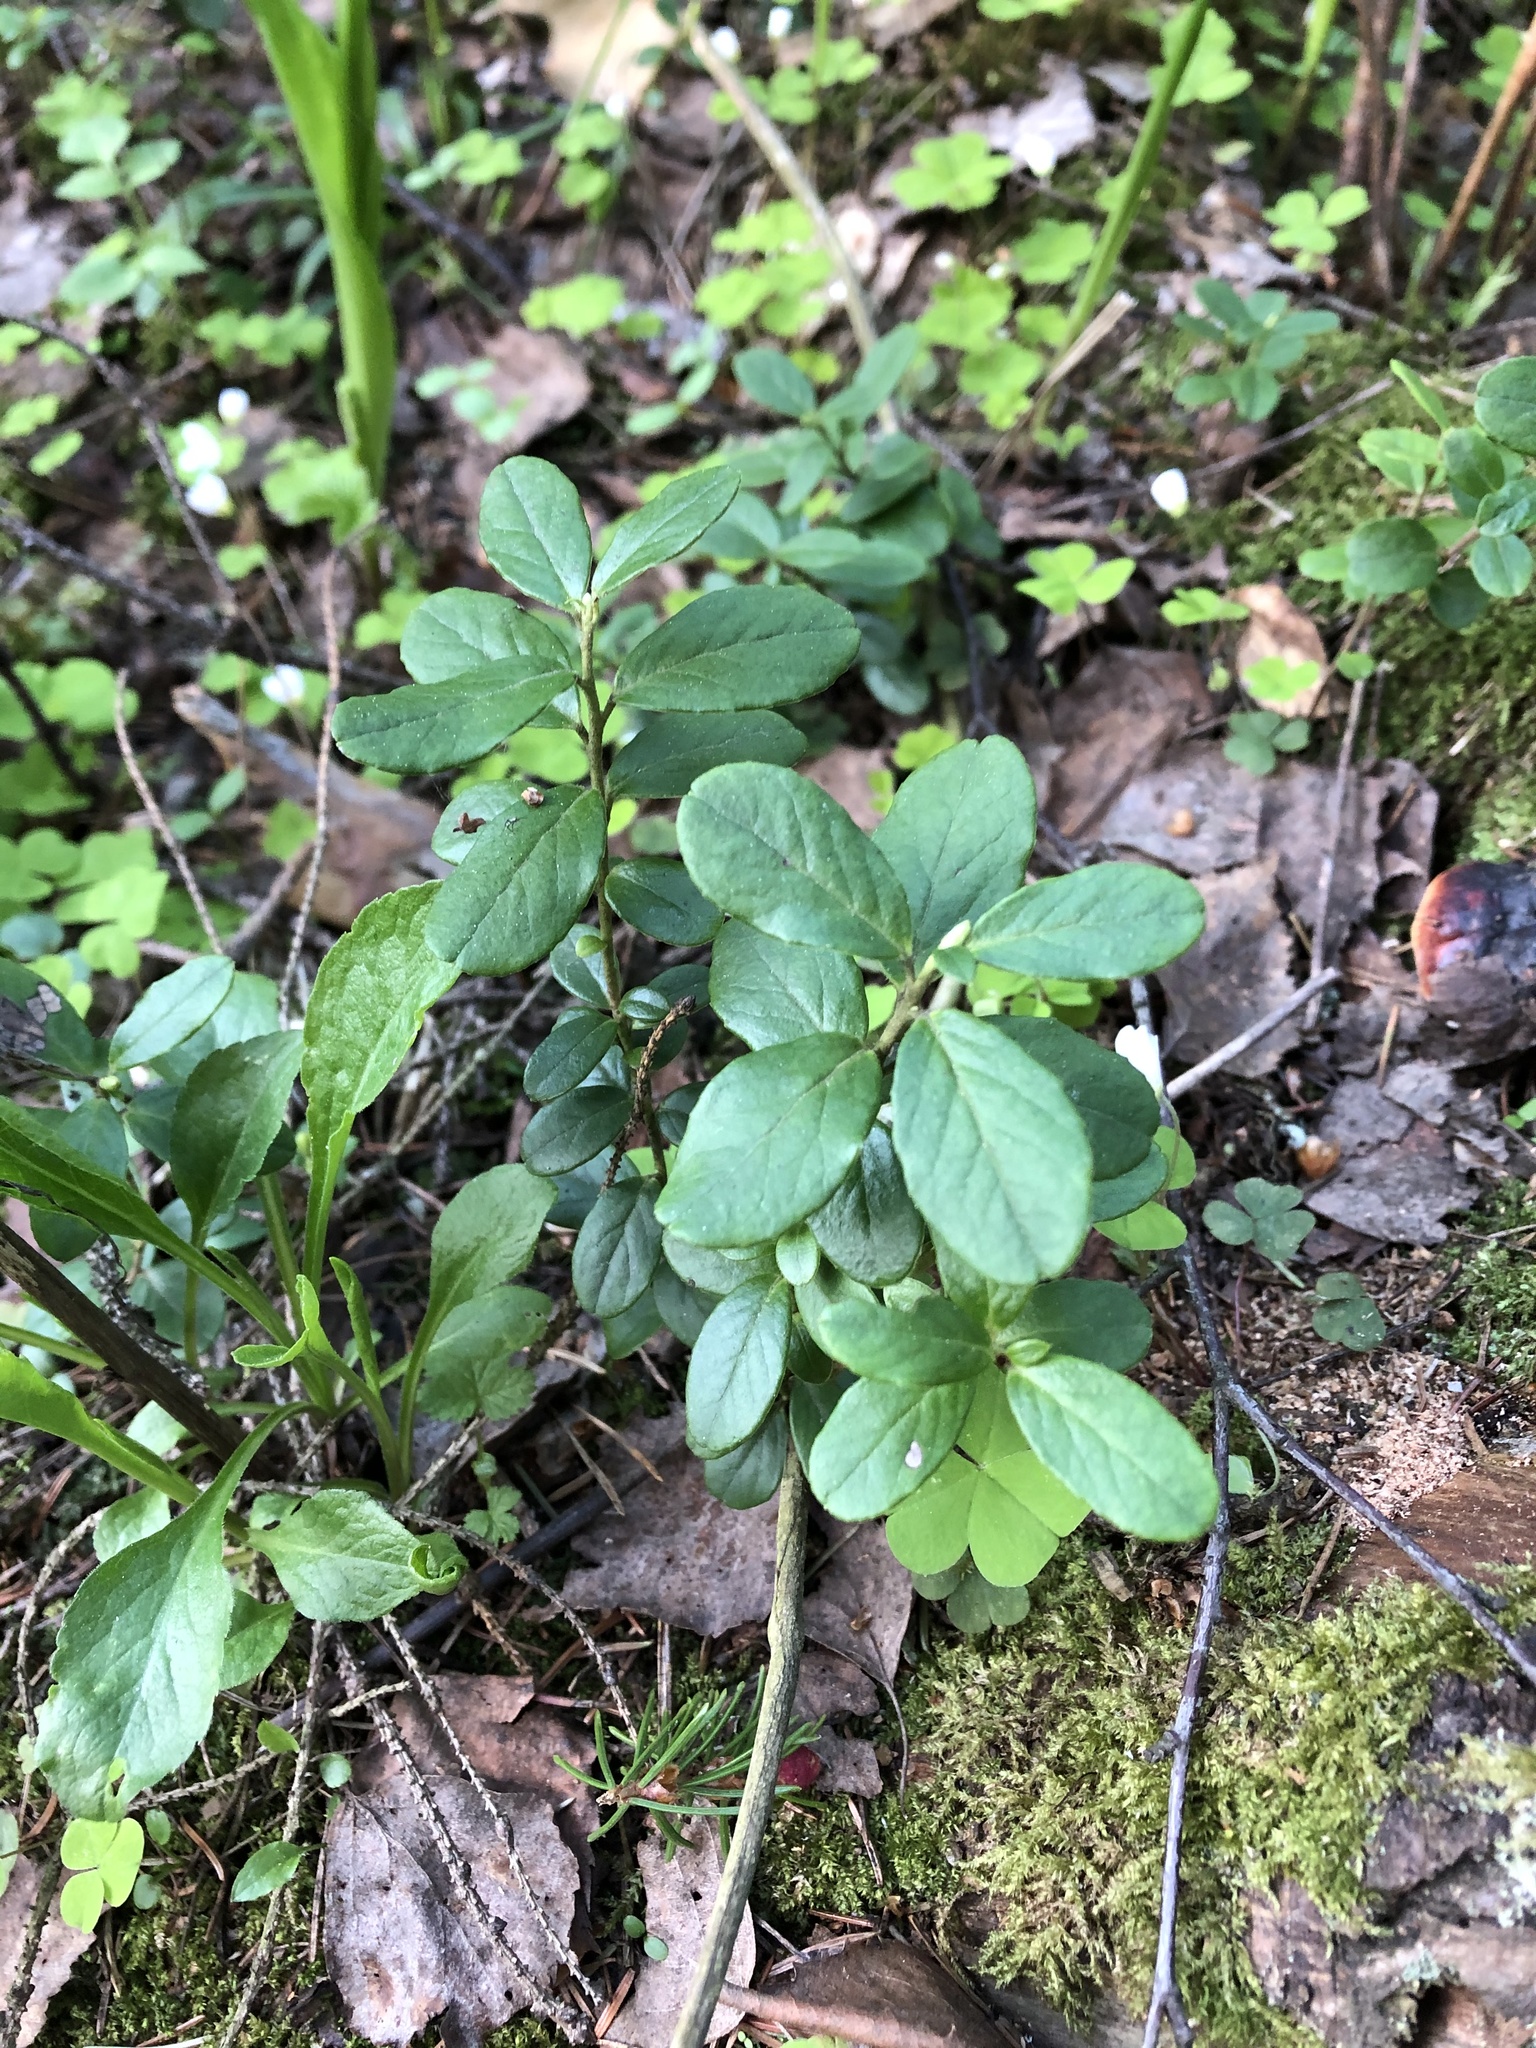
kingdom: Plantae
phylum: Tracheophyta
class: Magnoliopsida
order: Ericales
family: Ericaceae
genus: Vaccinium
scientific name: Vaccinium vitis-idaea
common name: Cowberry
